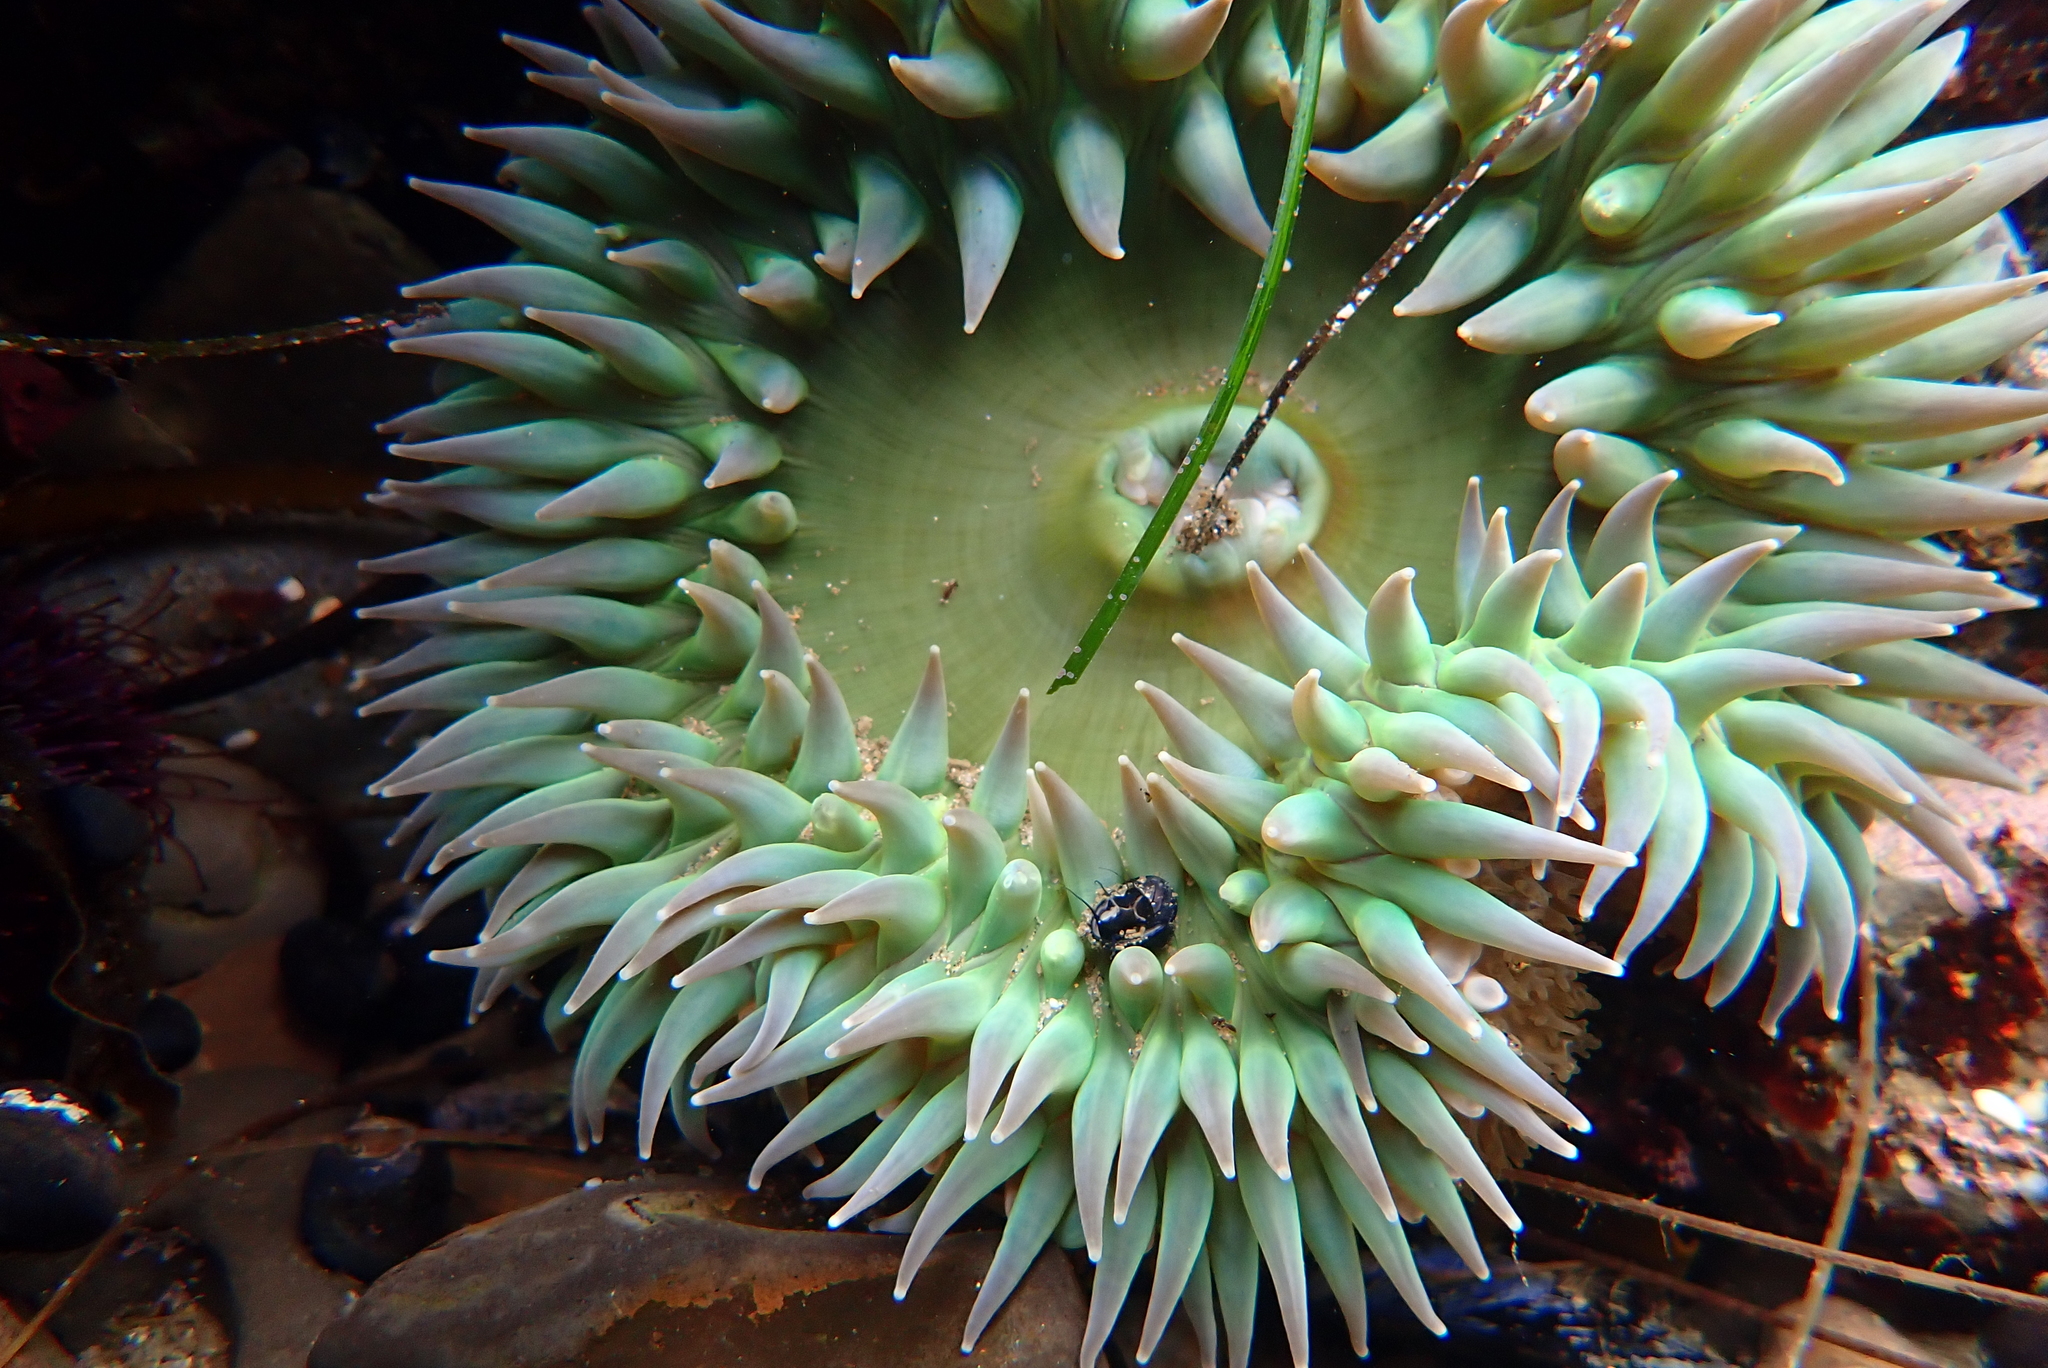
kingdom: Animalia
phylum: Cnidaria
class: Anthozoa
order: Actiniaria
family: Actiniidae
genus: Anthopleura
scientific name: Anthopleura xanthogrammica
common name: Giant green anemone
